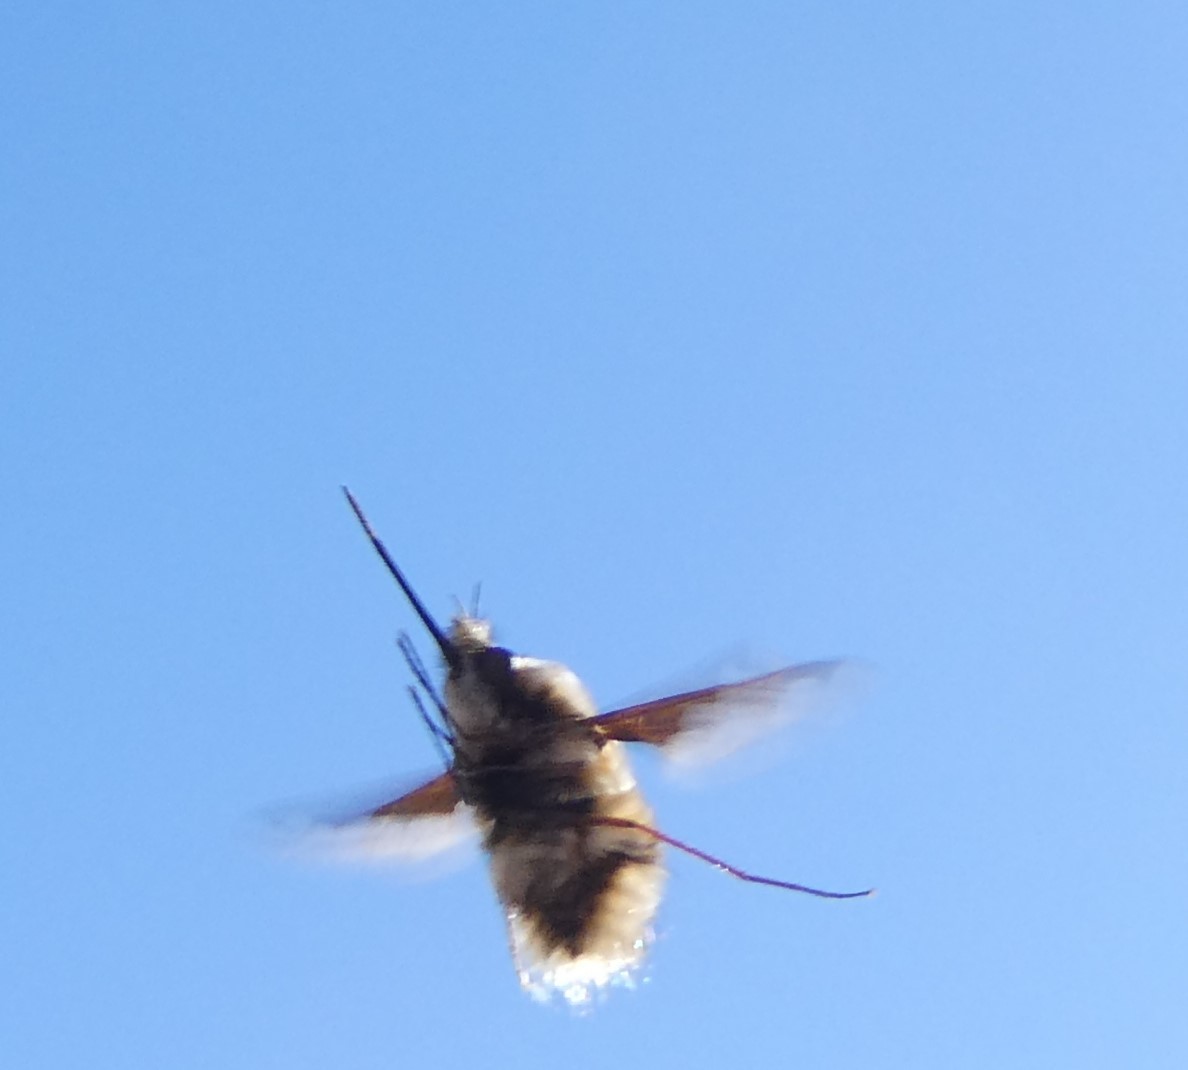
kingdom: Animalia
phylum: Arthropoda
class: Insecta
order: Diptera
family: Bombyliidae
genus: Bombylius
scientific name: Bombylius major
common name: Bee fly
